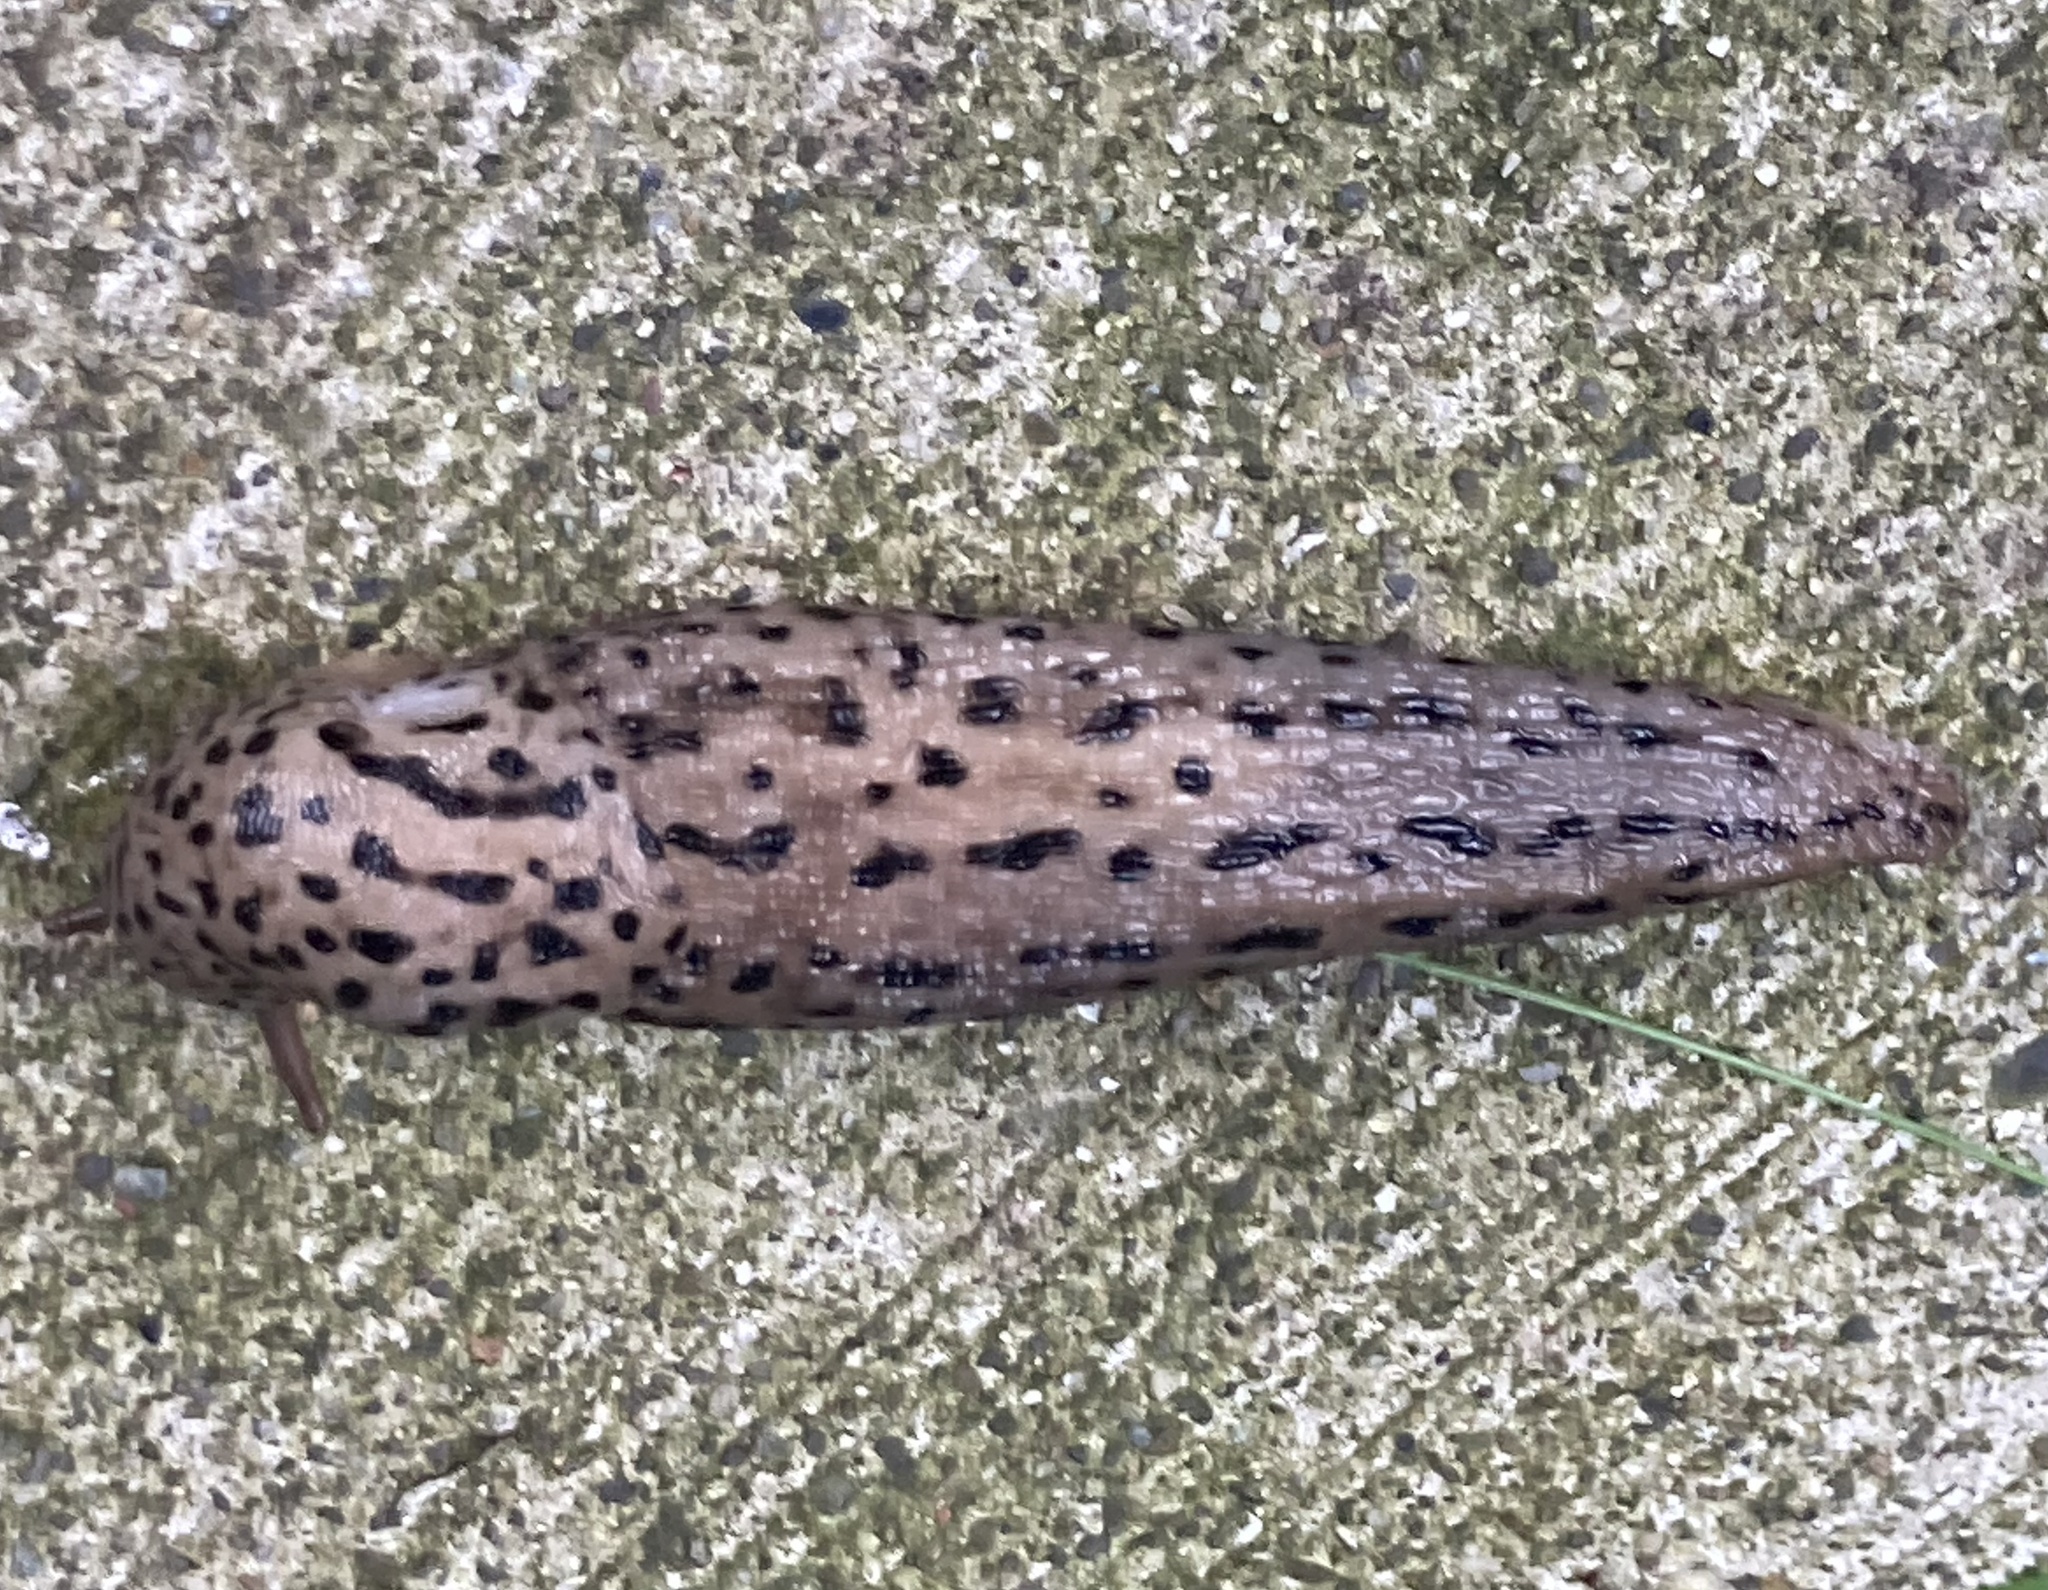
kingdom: Animalia
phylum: Mollusca
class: Gastropoda
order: Stylommatophora
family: Limacidae
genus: Limax
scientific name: Limax maximus
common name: Great grey slug
